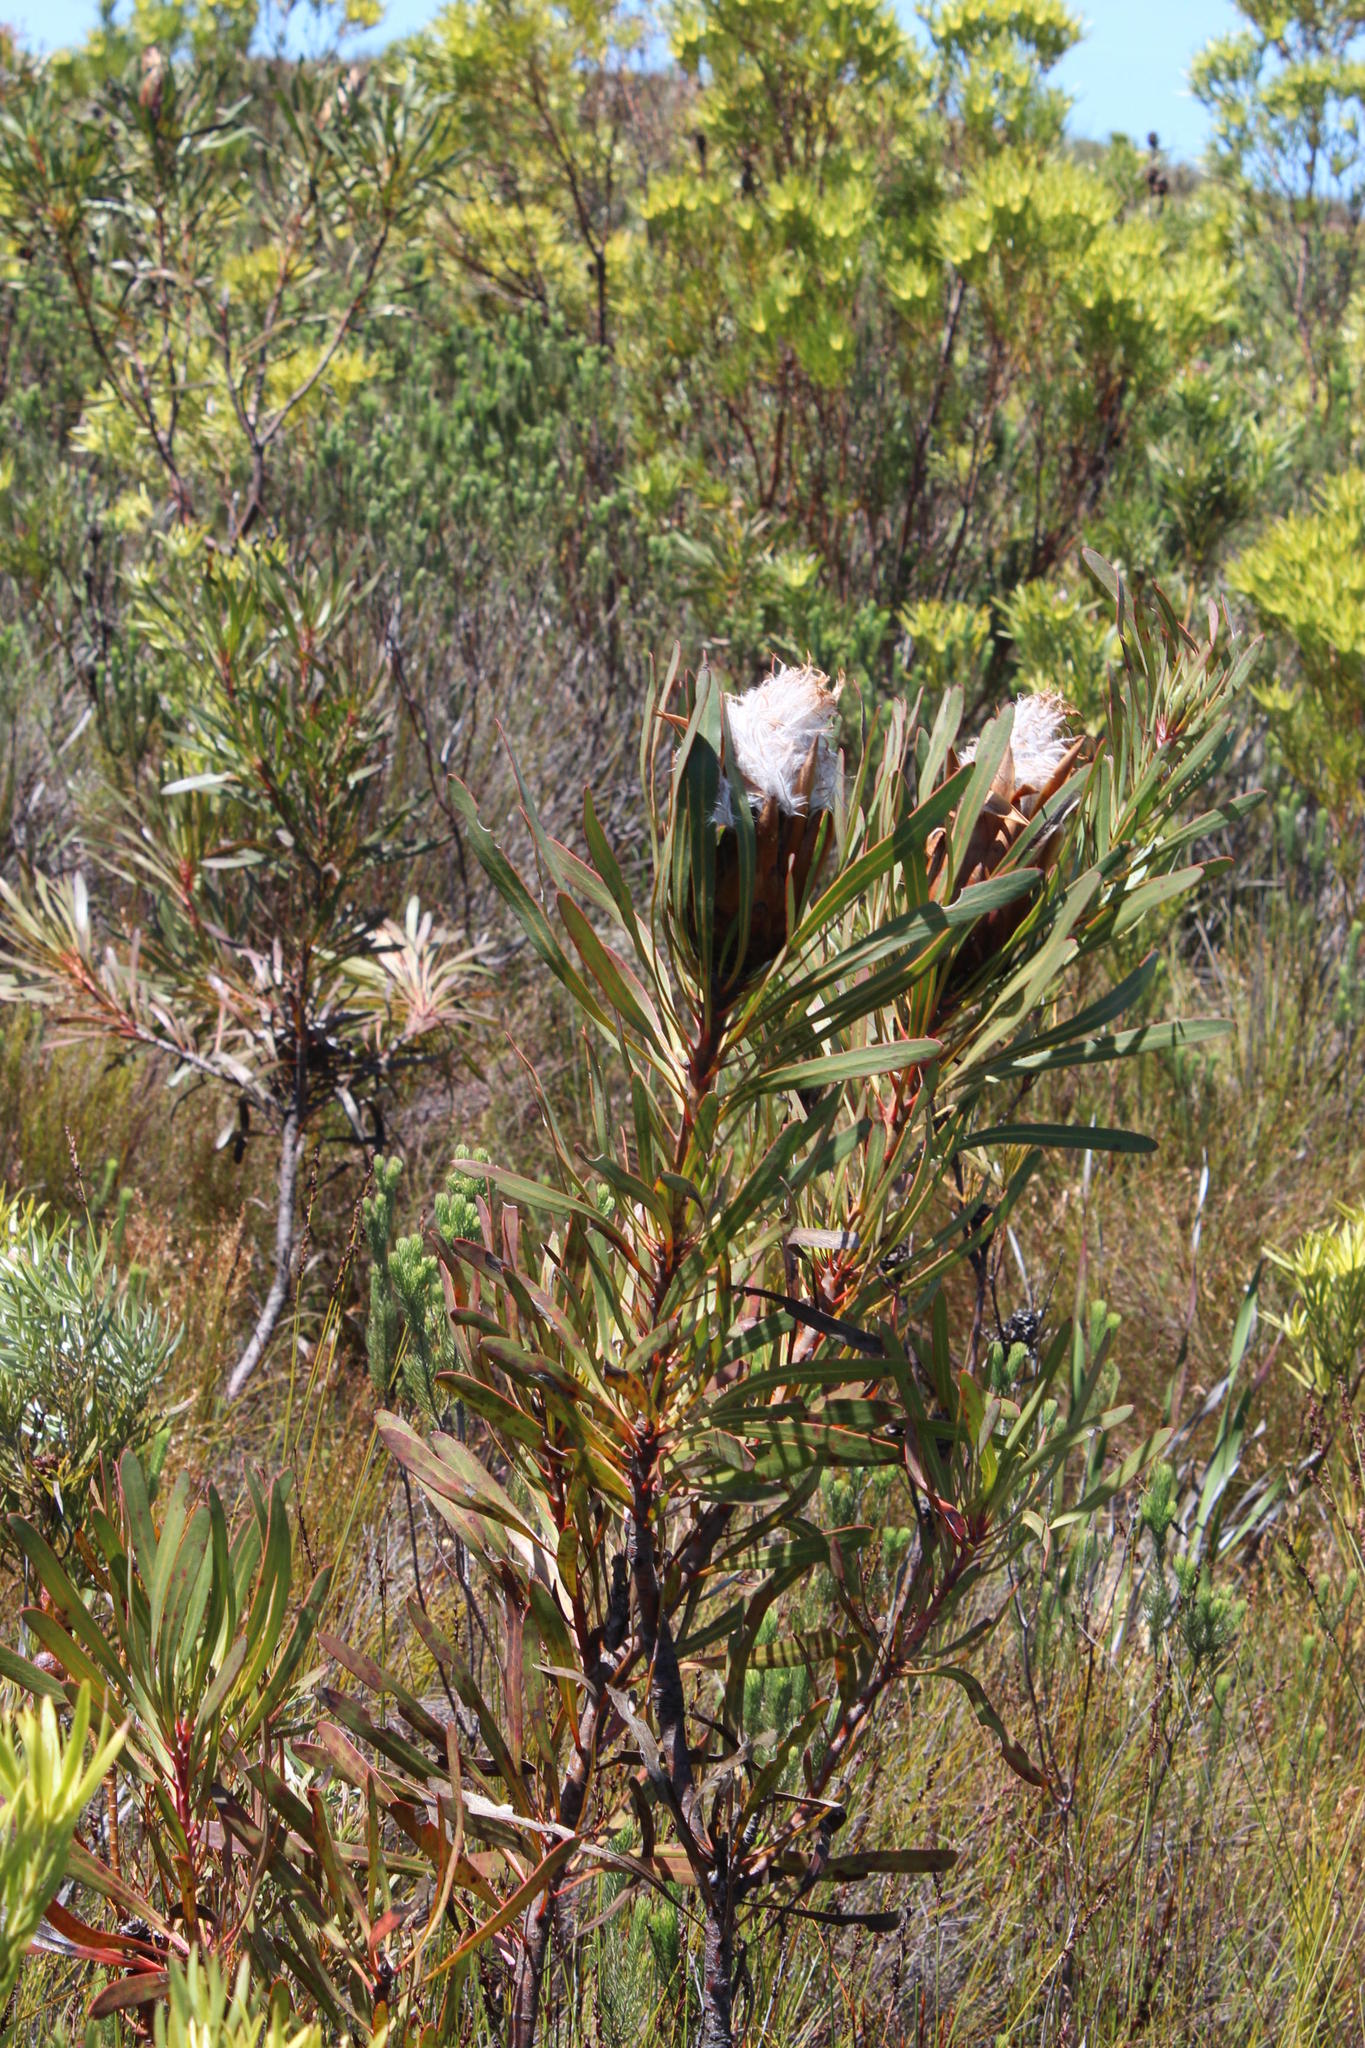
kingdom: Plantae
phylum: Tracheophyta
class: Magnoliopsida
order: Proteales
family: Proteaceae
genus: Protea
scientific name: Protea longifolia
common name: Long-leaf sugarbush
